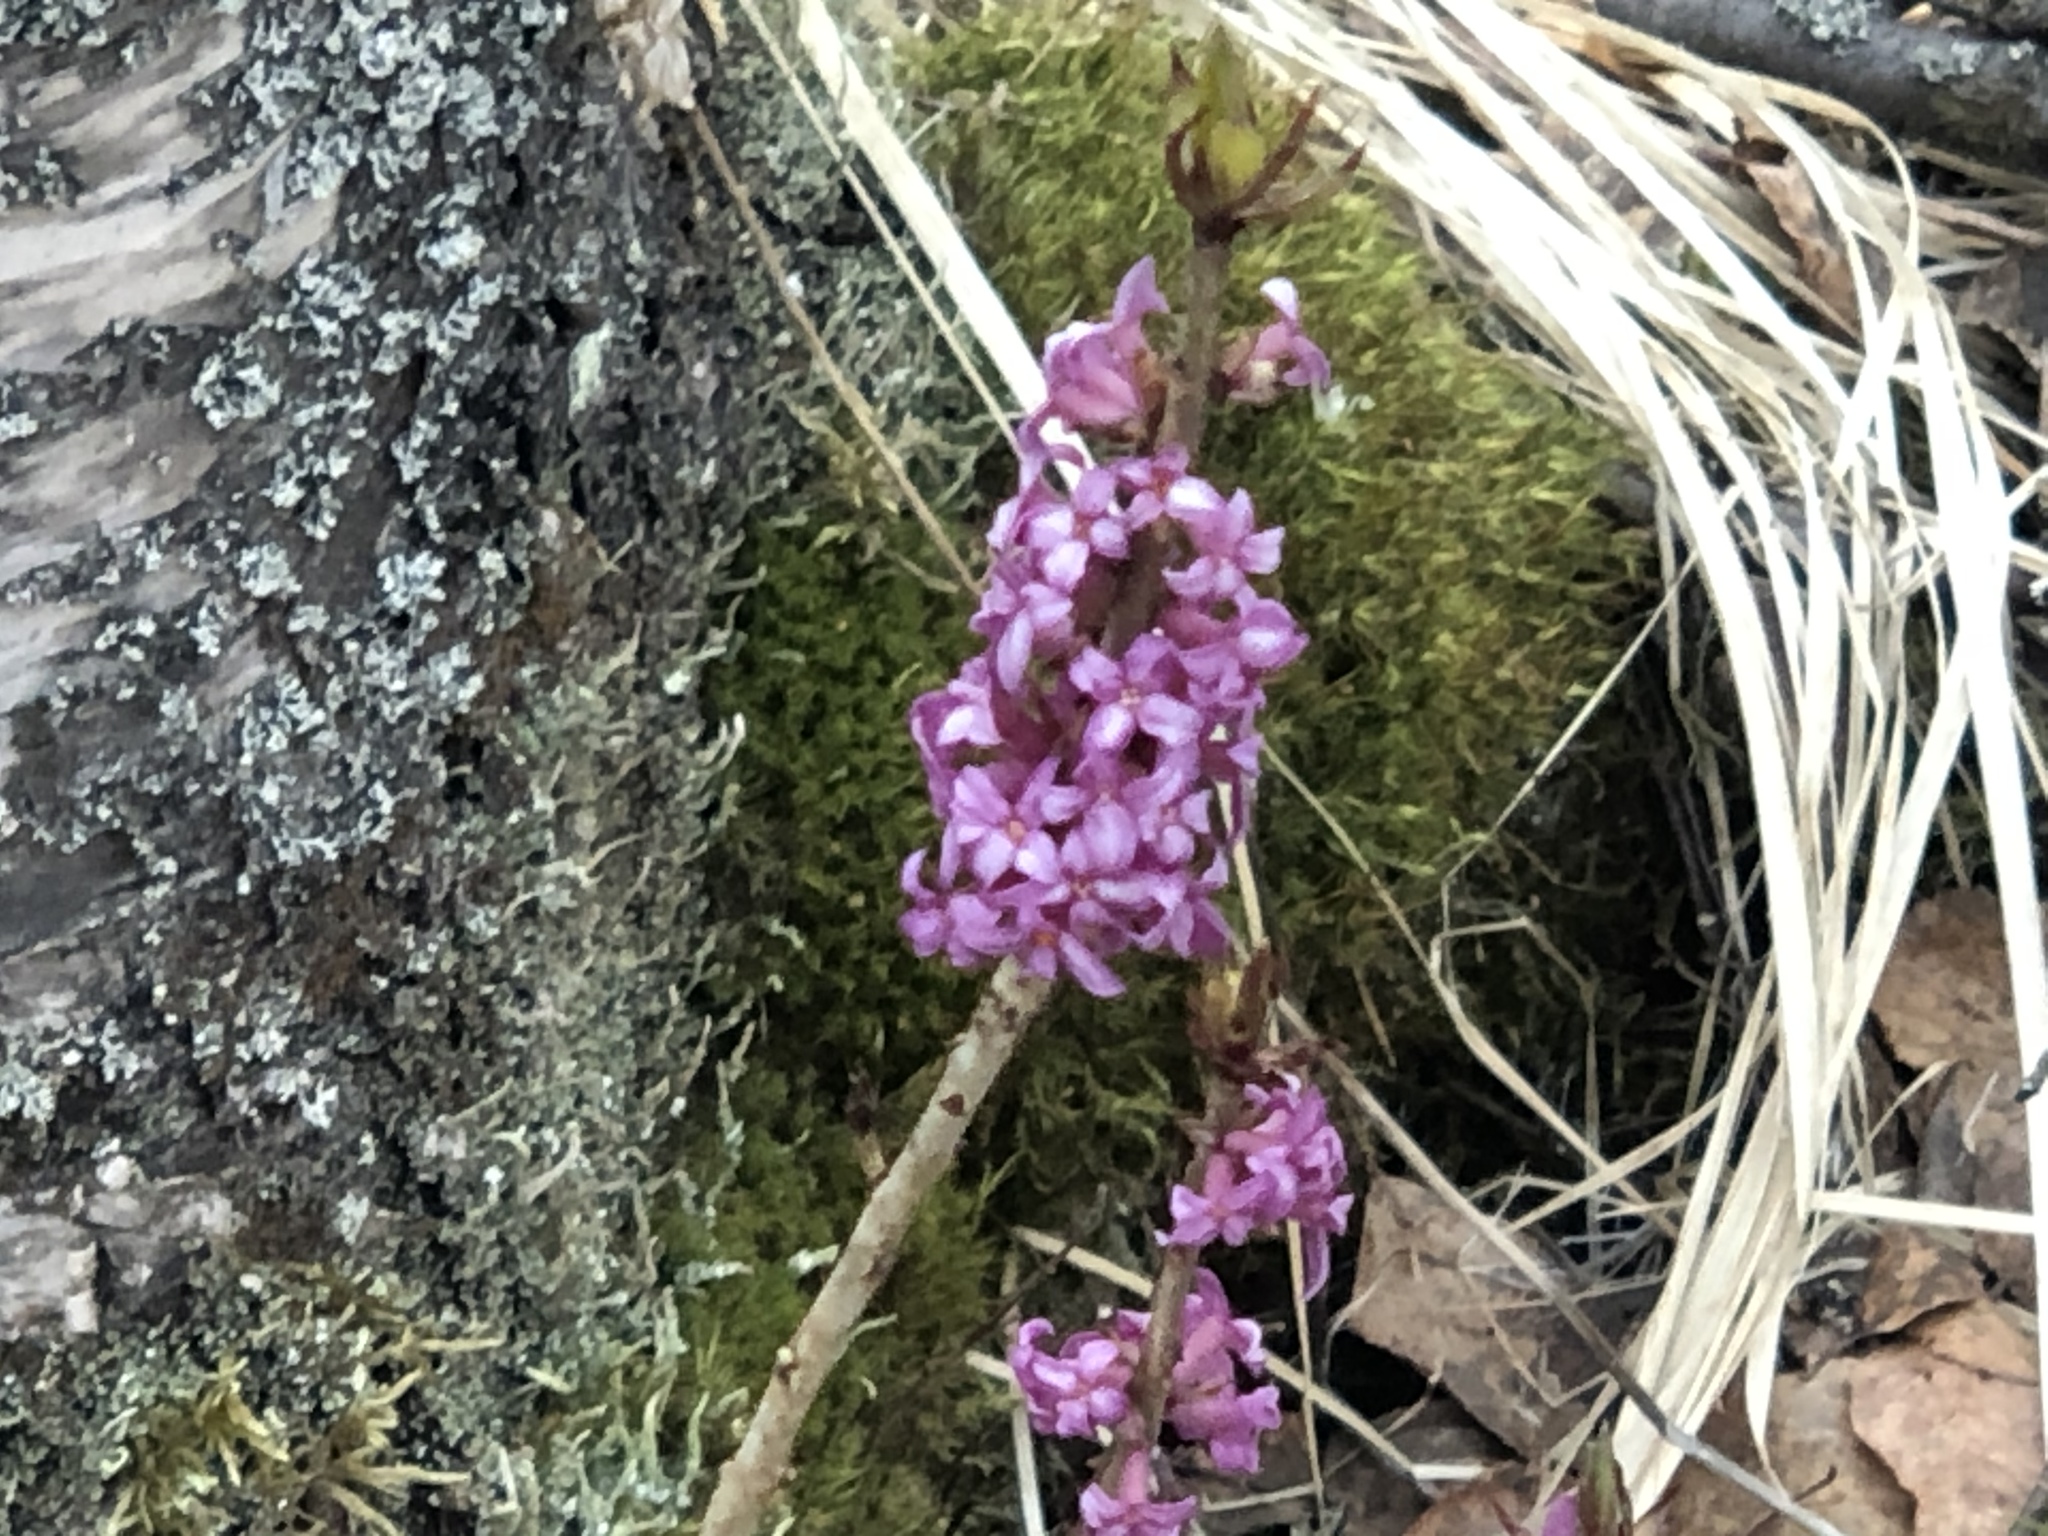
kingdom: Plantae
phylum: Tracheophyta
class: Magnoliopsida
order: Malvales
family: Thymelaeaceae
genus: Daphne
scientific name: Daphne mezereum
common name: Mezereon
